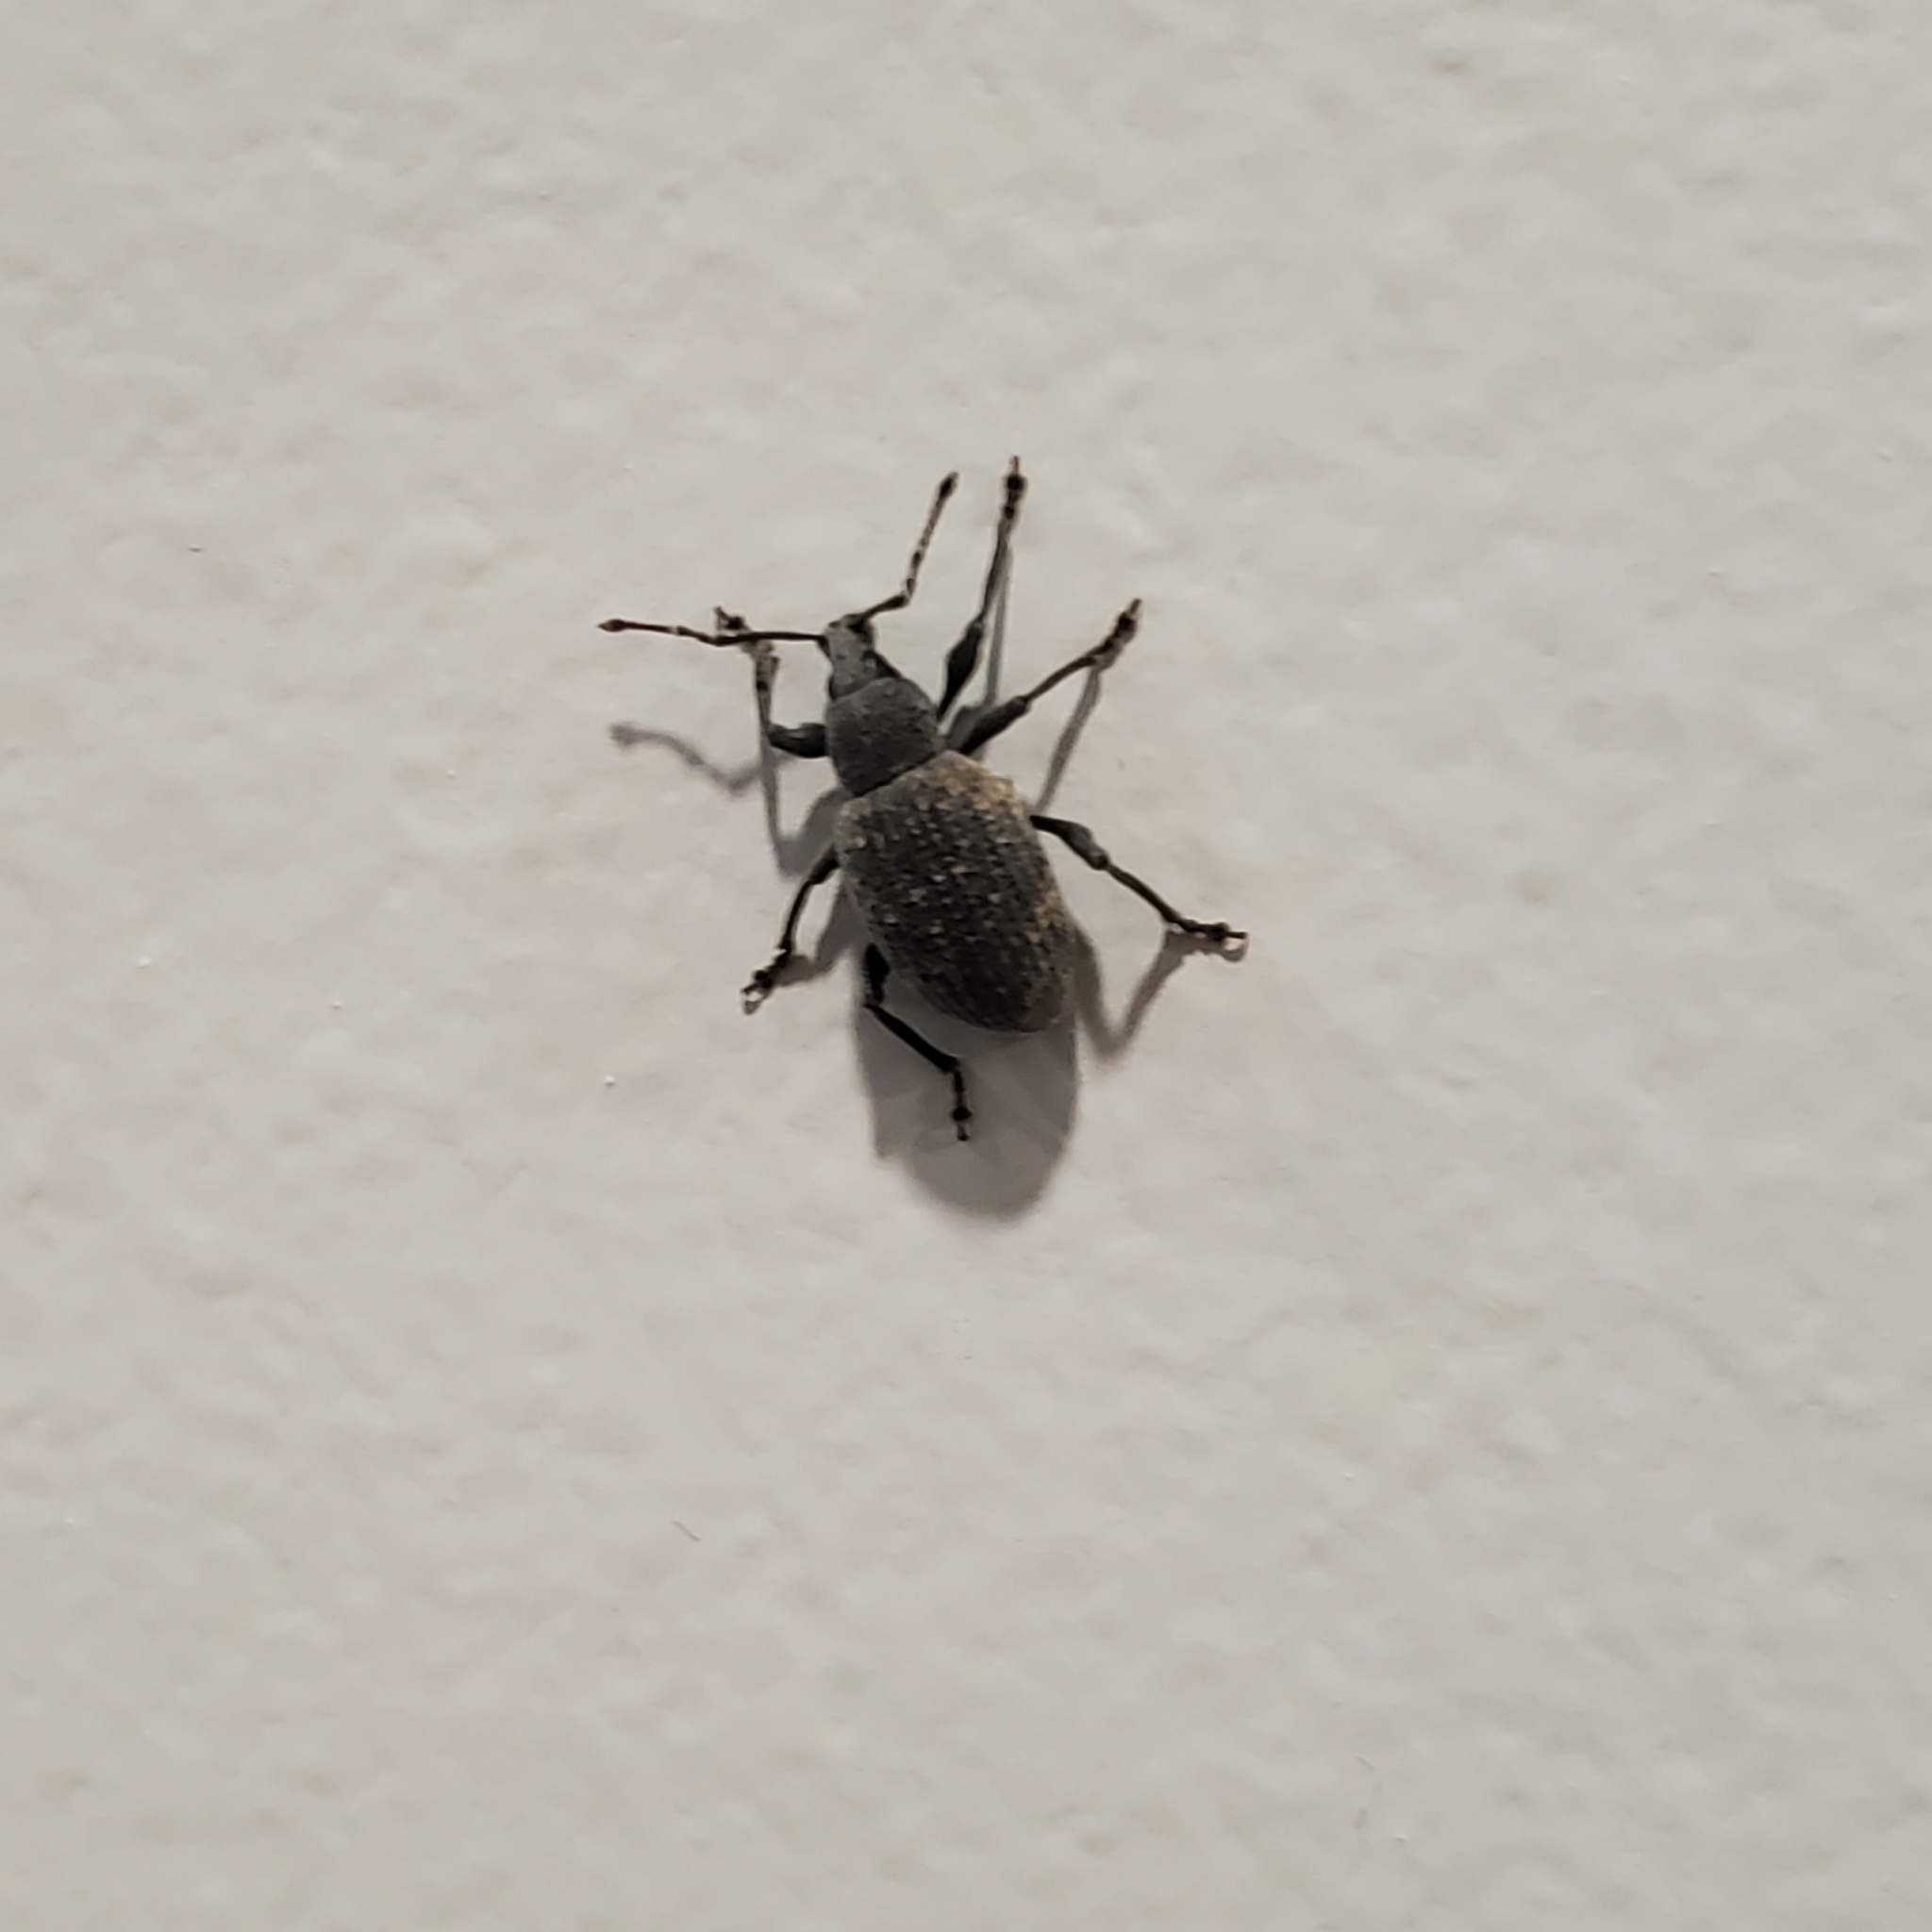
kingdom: Animalia
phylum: Arthropoda
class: Insecta
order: Coleoptera
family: Curculionidae
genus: Otiorhynchus
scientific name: Otiorhynchus sulcatus
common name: Black vine weevil
